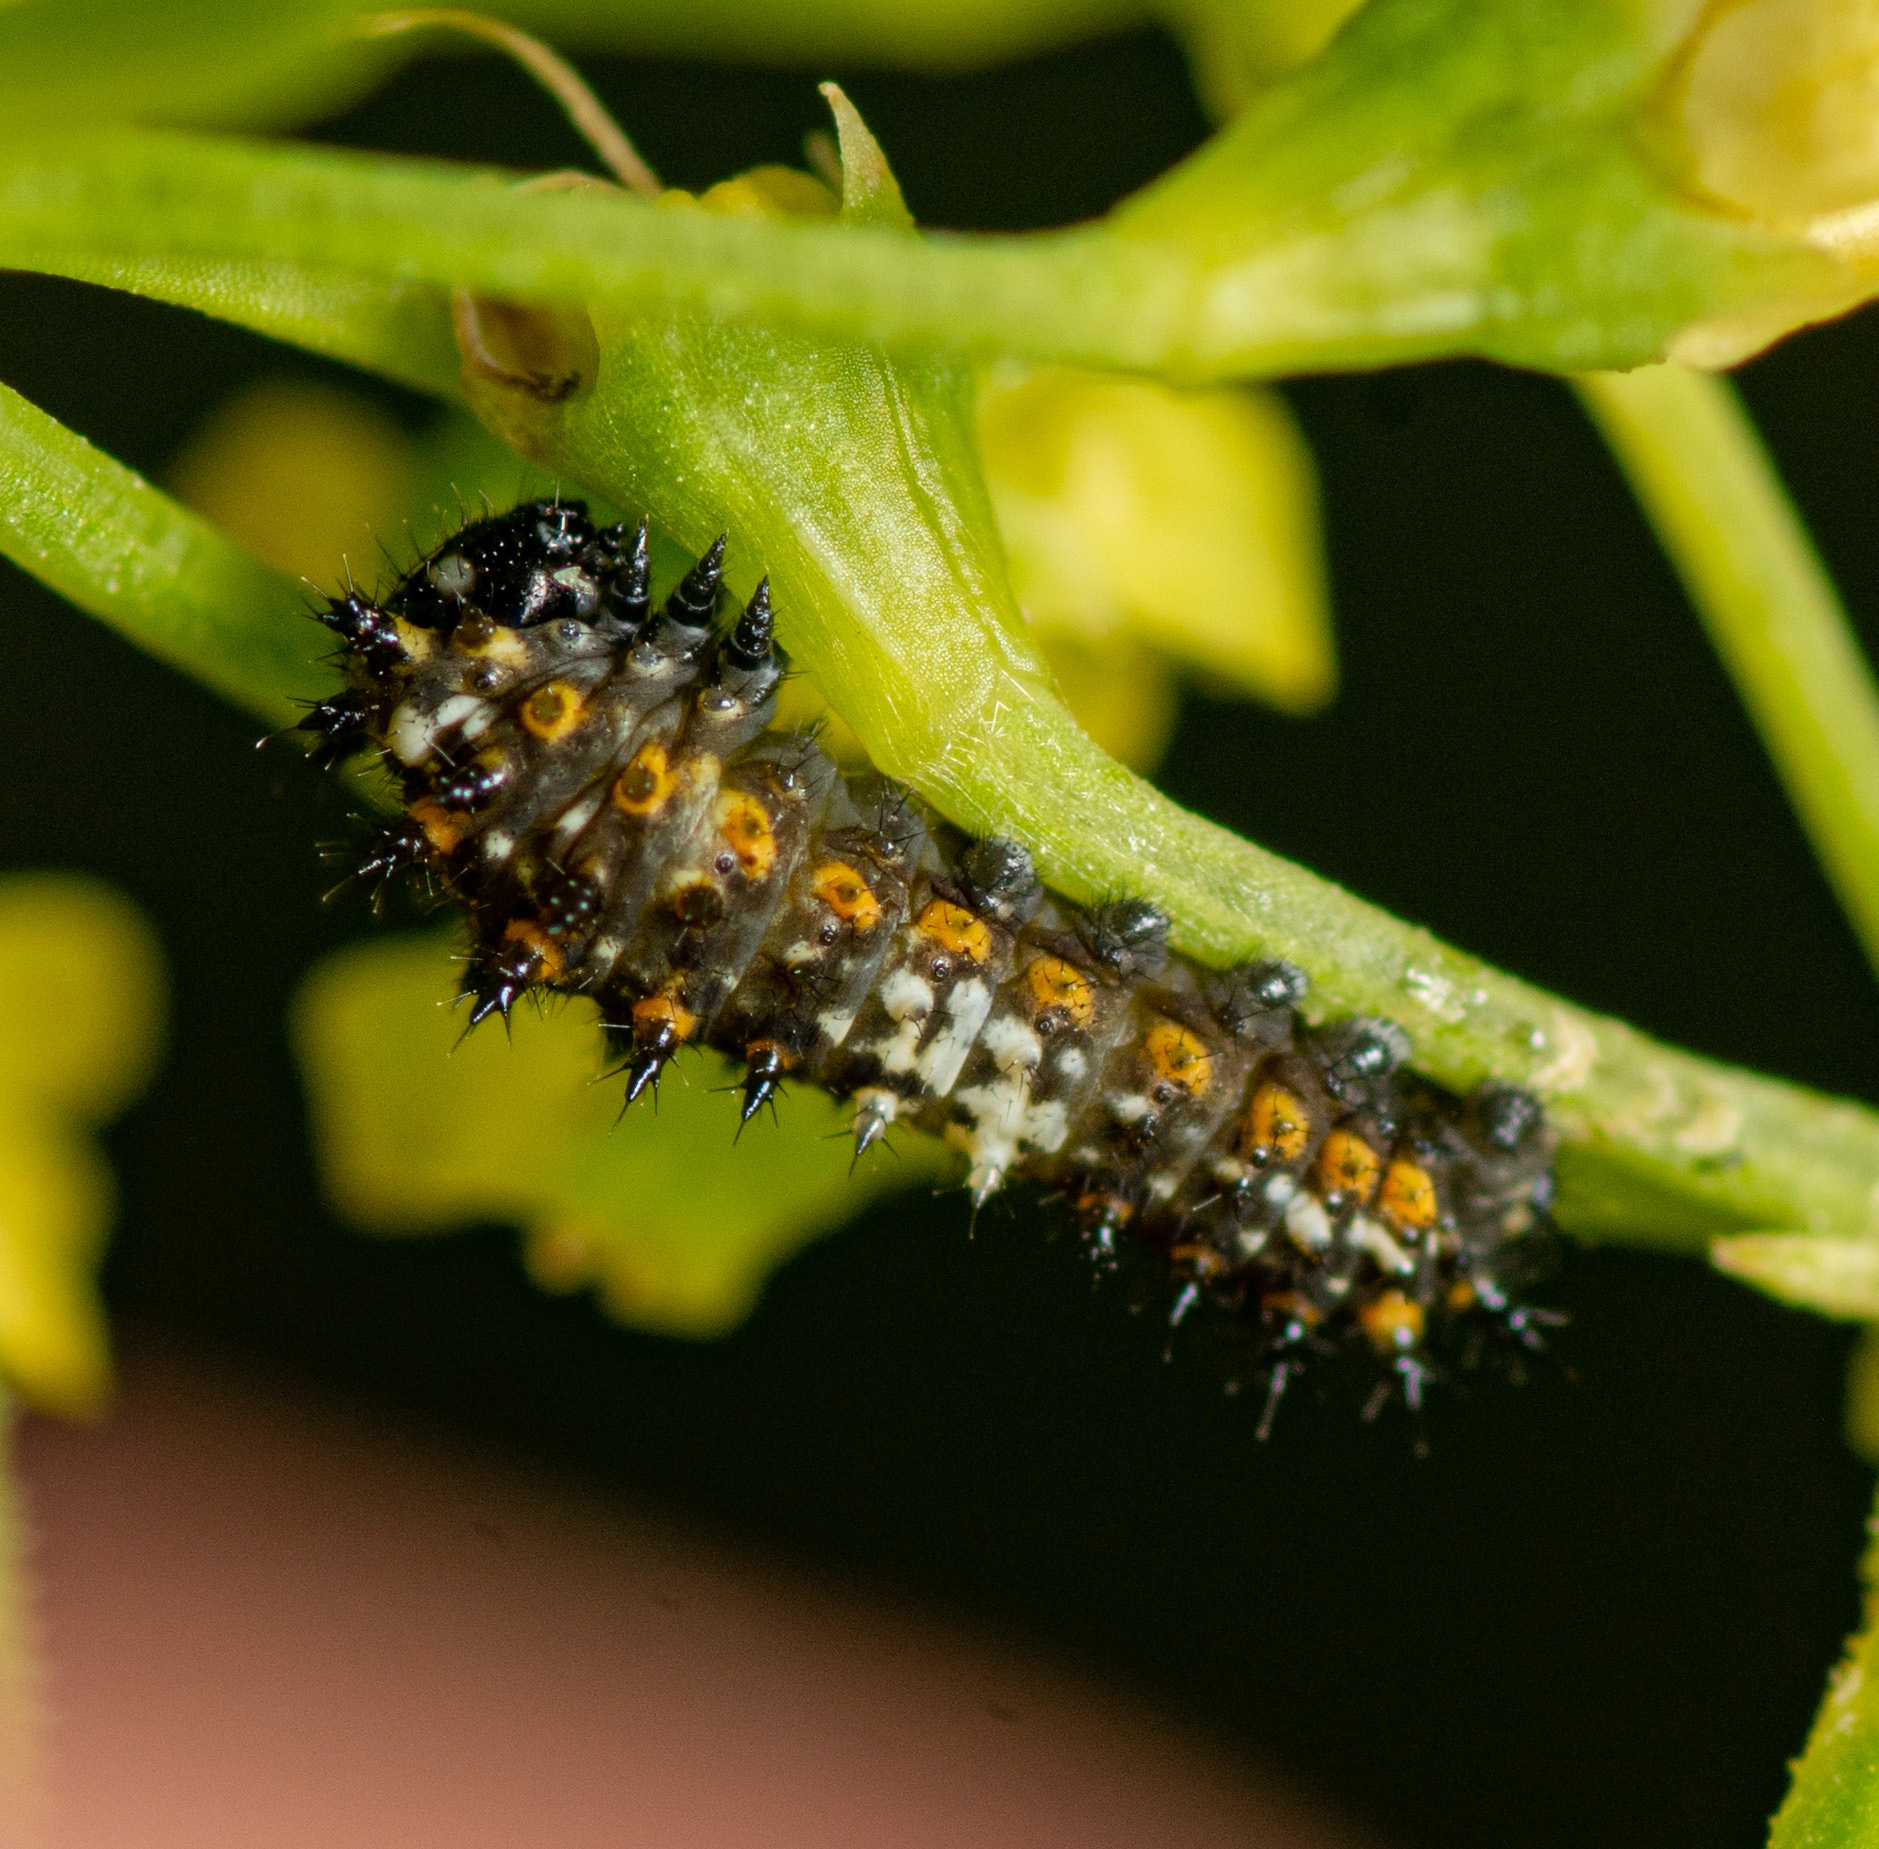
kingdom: Animalia
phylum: Arthropoda
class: Insecta
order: Lepidoptera
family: Papilionidae
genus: Papilio
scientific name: Papilio polyxenes
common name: Black swallowtail
